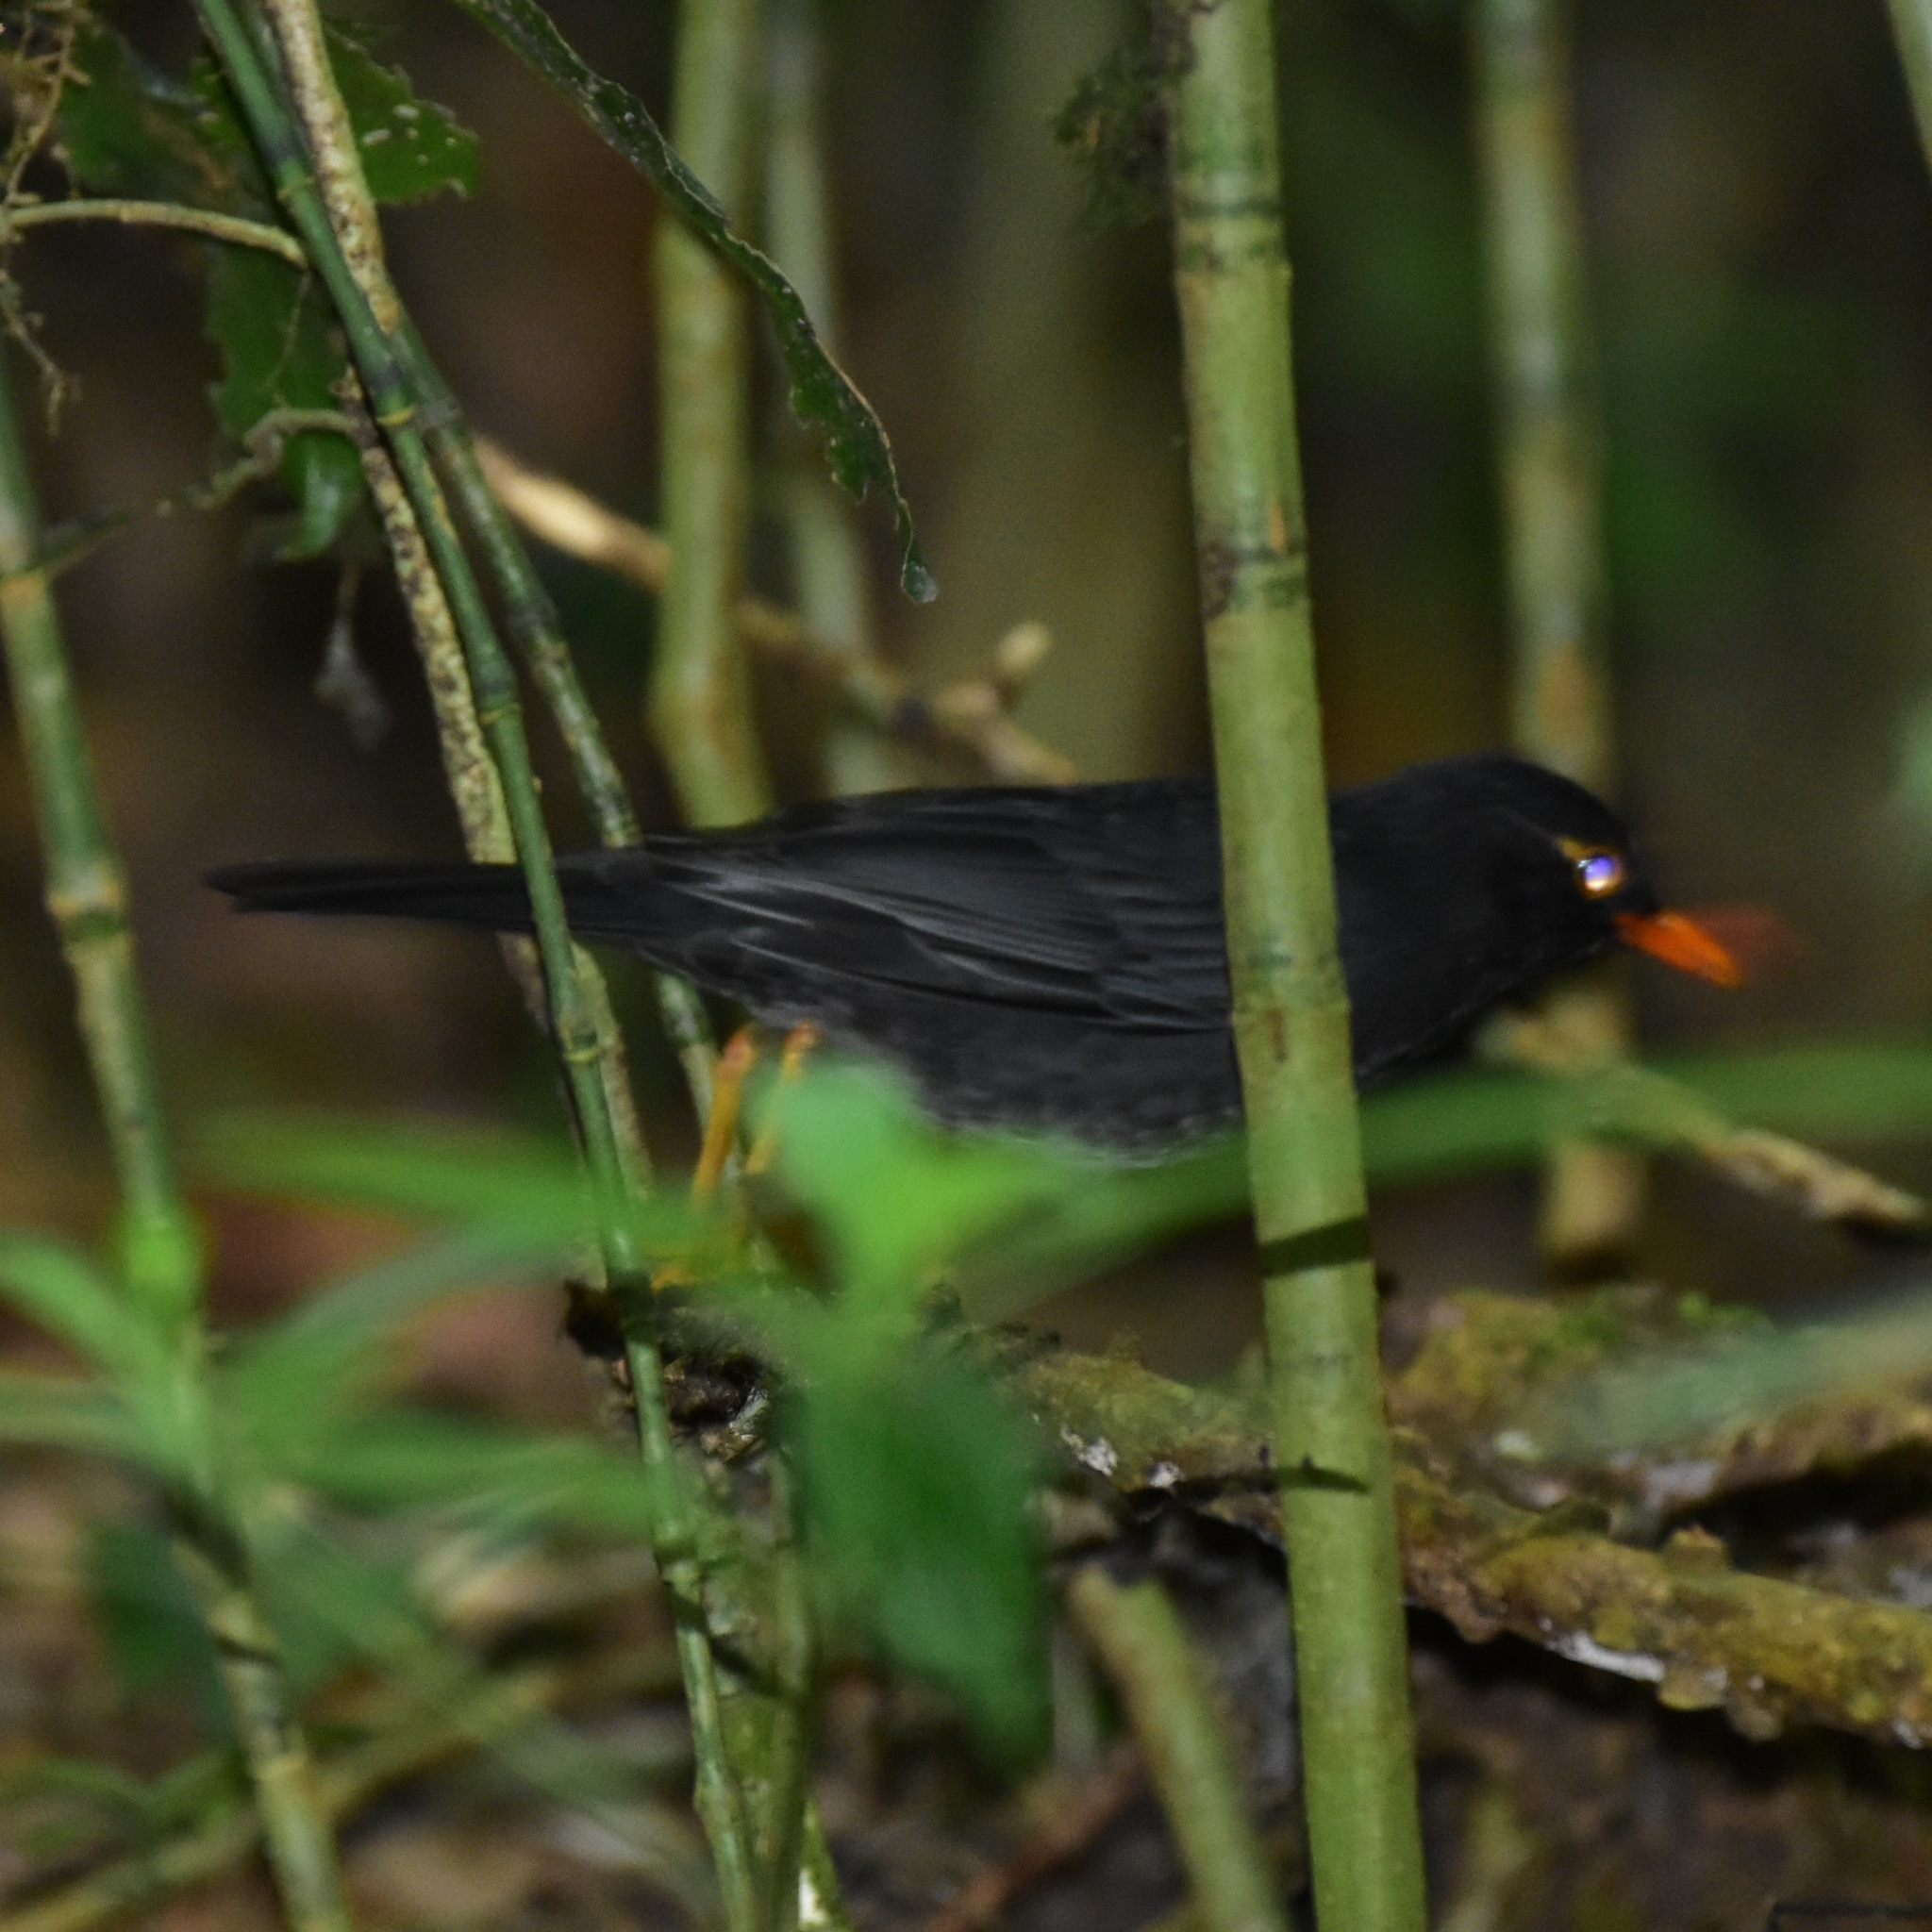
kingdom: Animalia
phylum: Chordata
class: Aves
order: Passeriformes
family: Turdidae
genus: Turdus
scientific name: Turdus simillimus
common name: Indian blackbird
